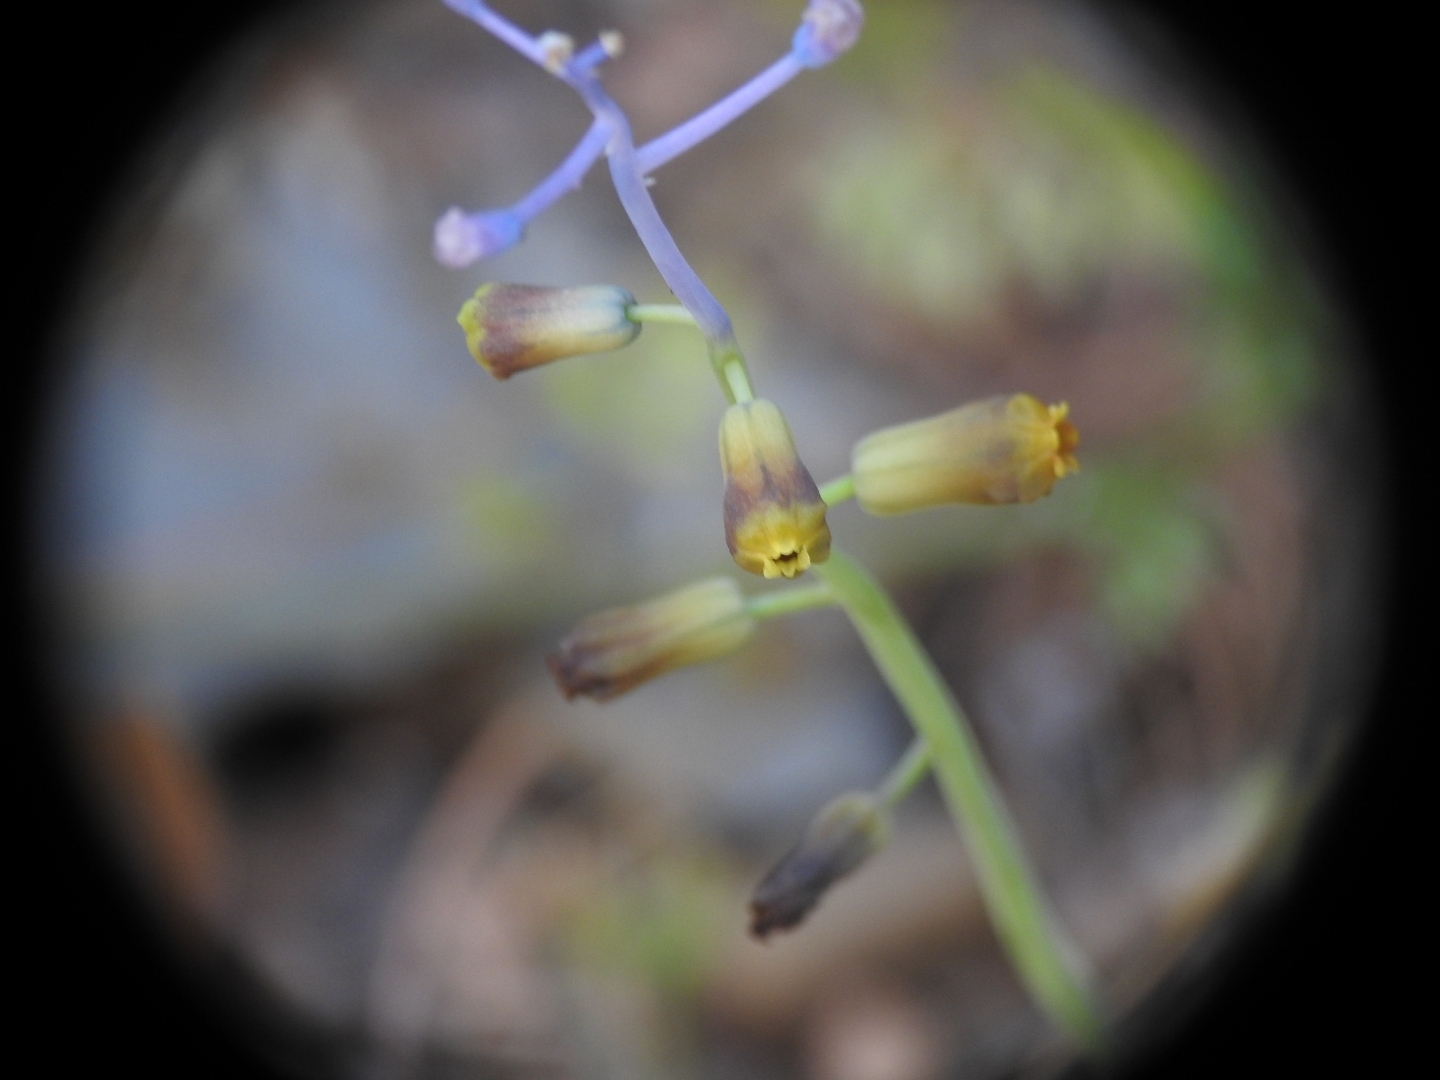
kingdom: Plantae
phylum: Tracheophyta
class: Liliopsida
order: Asparagales
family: Asparagaceae
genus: Muscari
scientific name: Muscari spreitzenhoferi
